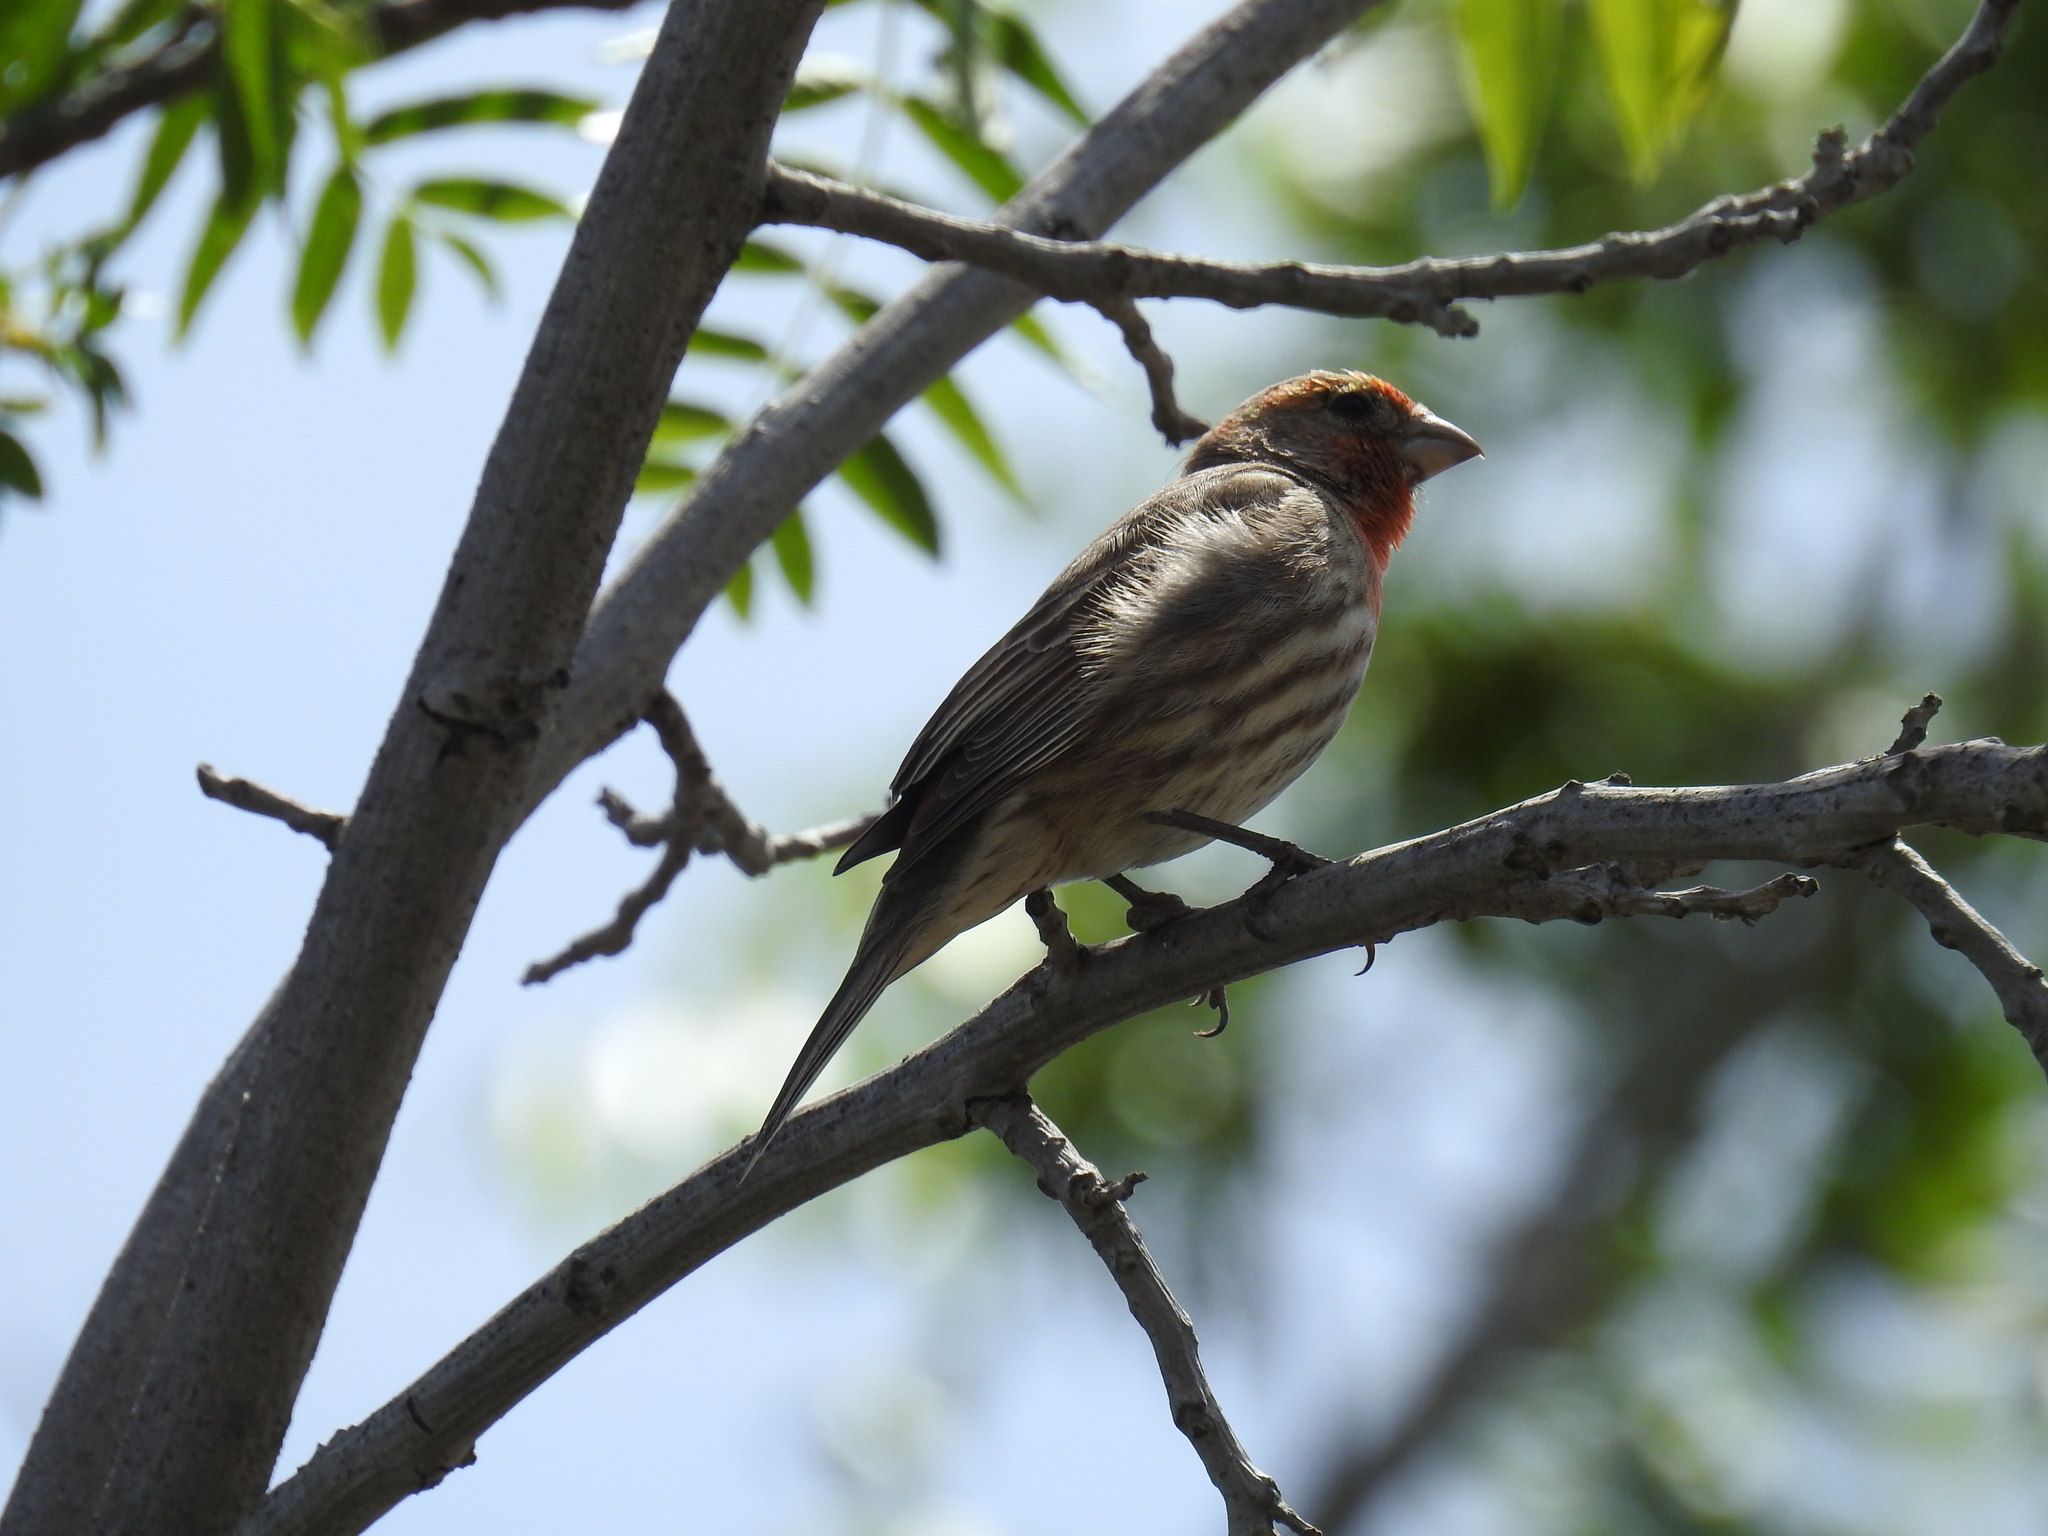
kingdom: Animalia
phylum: Chordata
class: Aves
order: Passeriformes
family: Fringillidae
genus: Haemorhous
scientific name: Haemorhous mexicanus
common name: House finch
